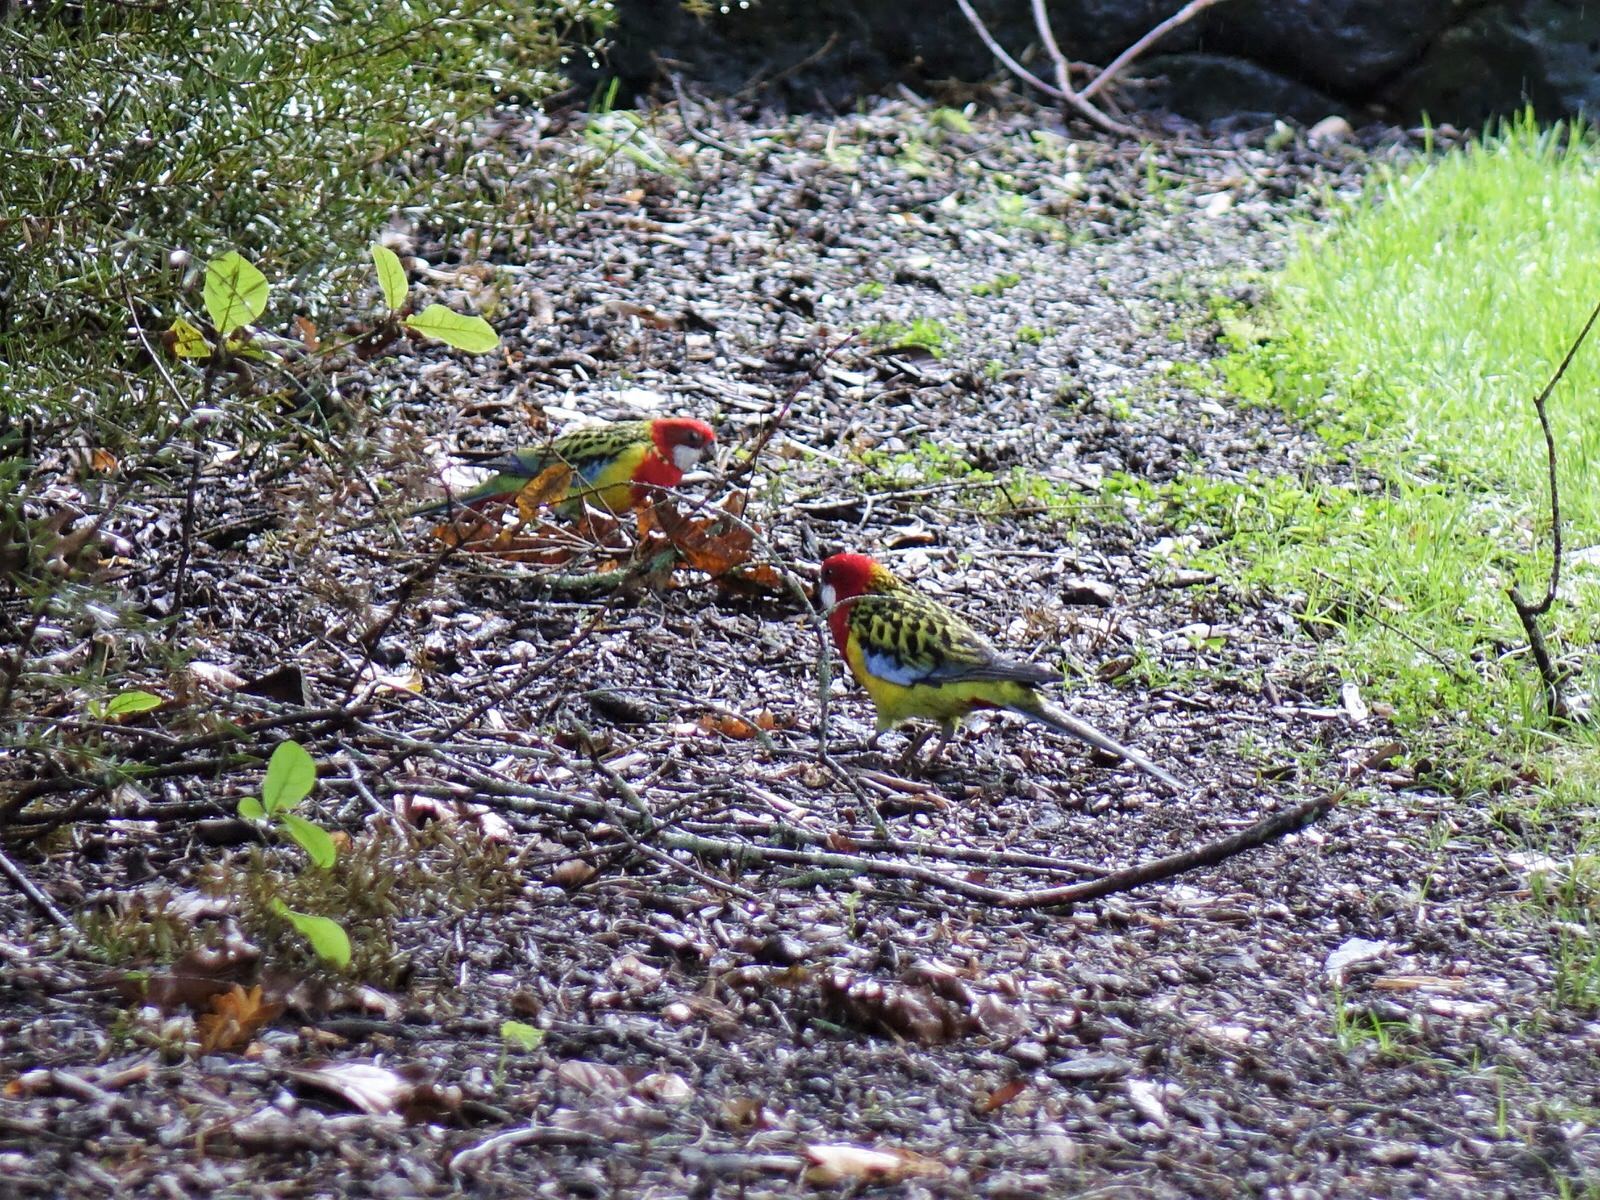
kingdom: Animalia
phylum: Chordata
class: Aves
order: Psittaciformes
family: Psittacidae
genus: Platycercus
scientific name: Platycercus eximius
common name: Eastern rosella
